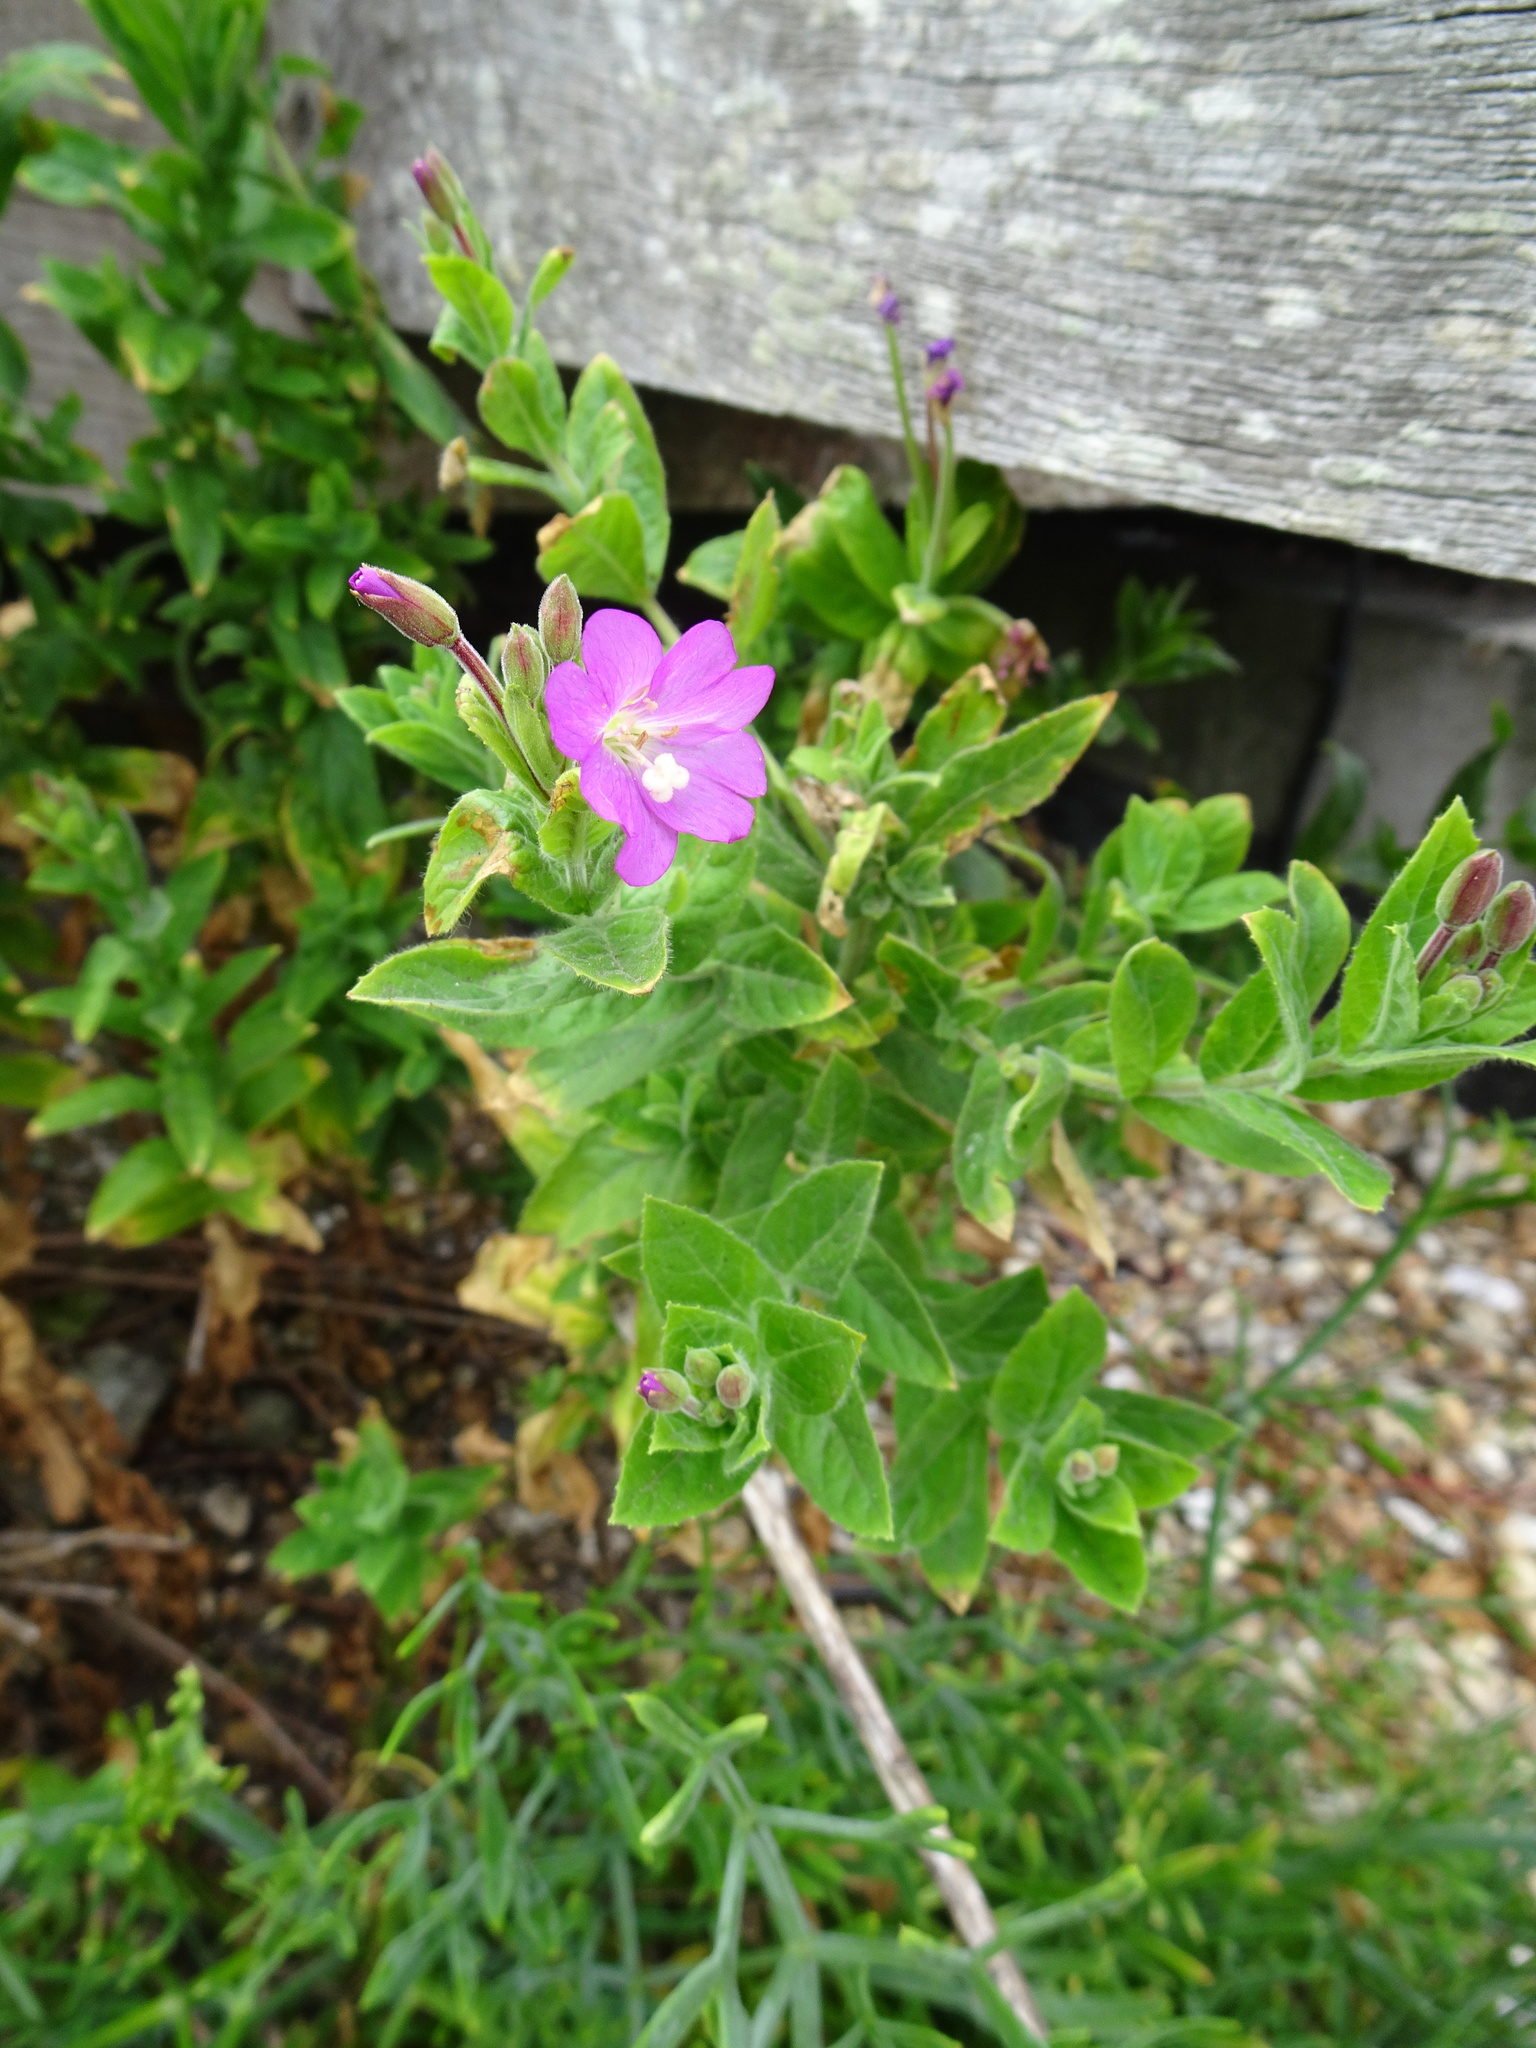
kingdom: Plantae
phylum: Tracheophyta
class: Magnoliopsida
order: Myrtales
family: Onagraceae
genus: Epilobium
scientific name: Epilobium hirsutum
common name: Great willowherb
